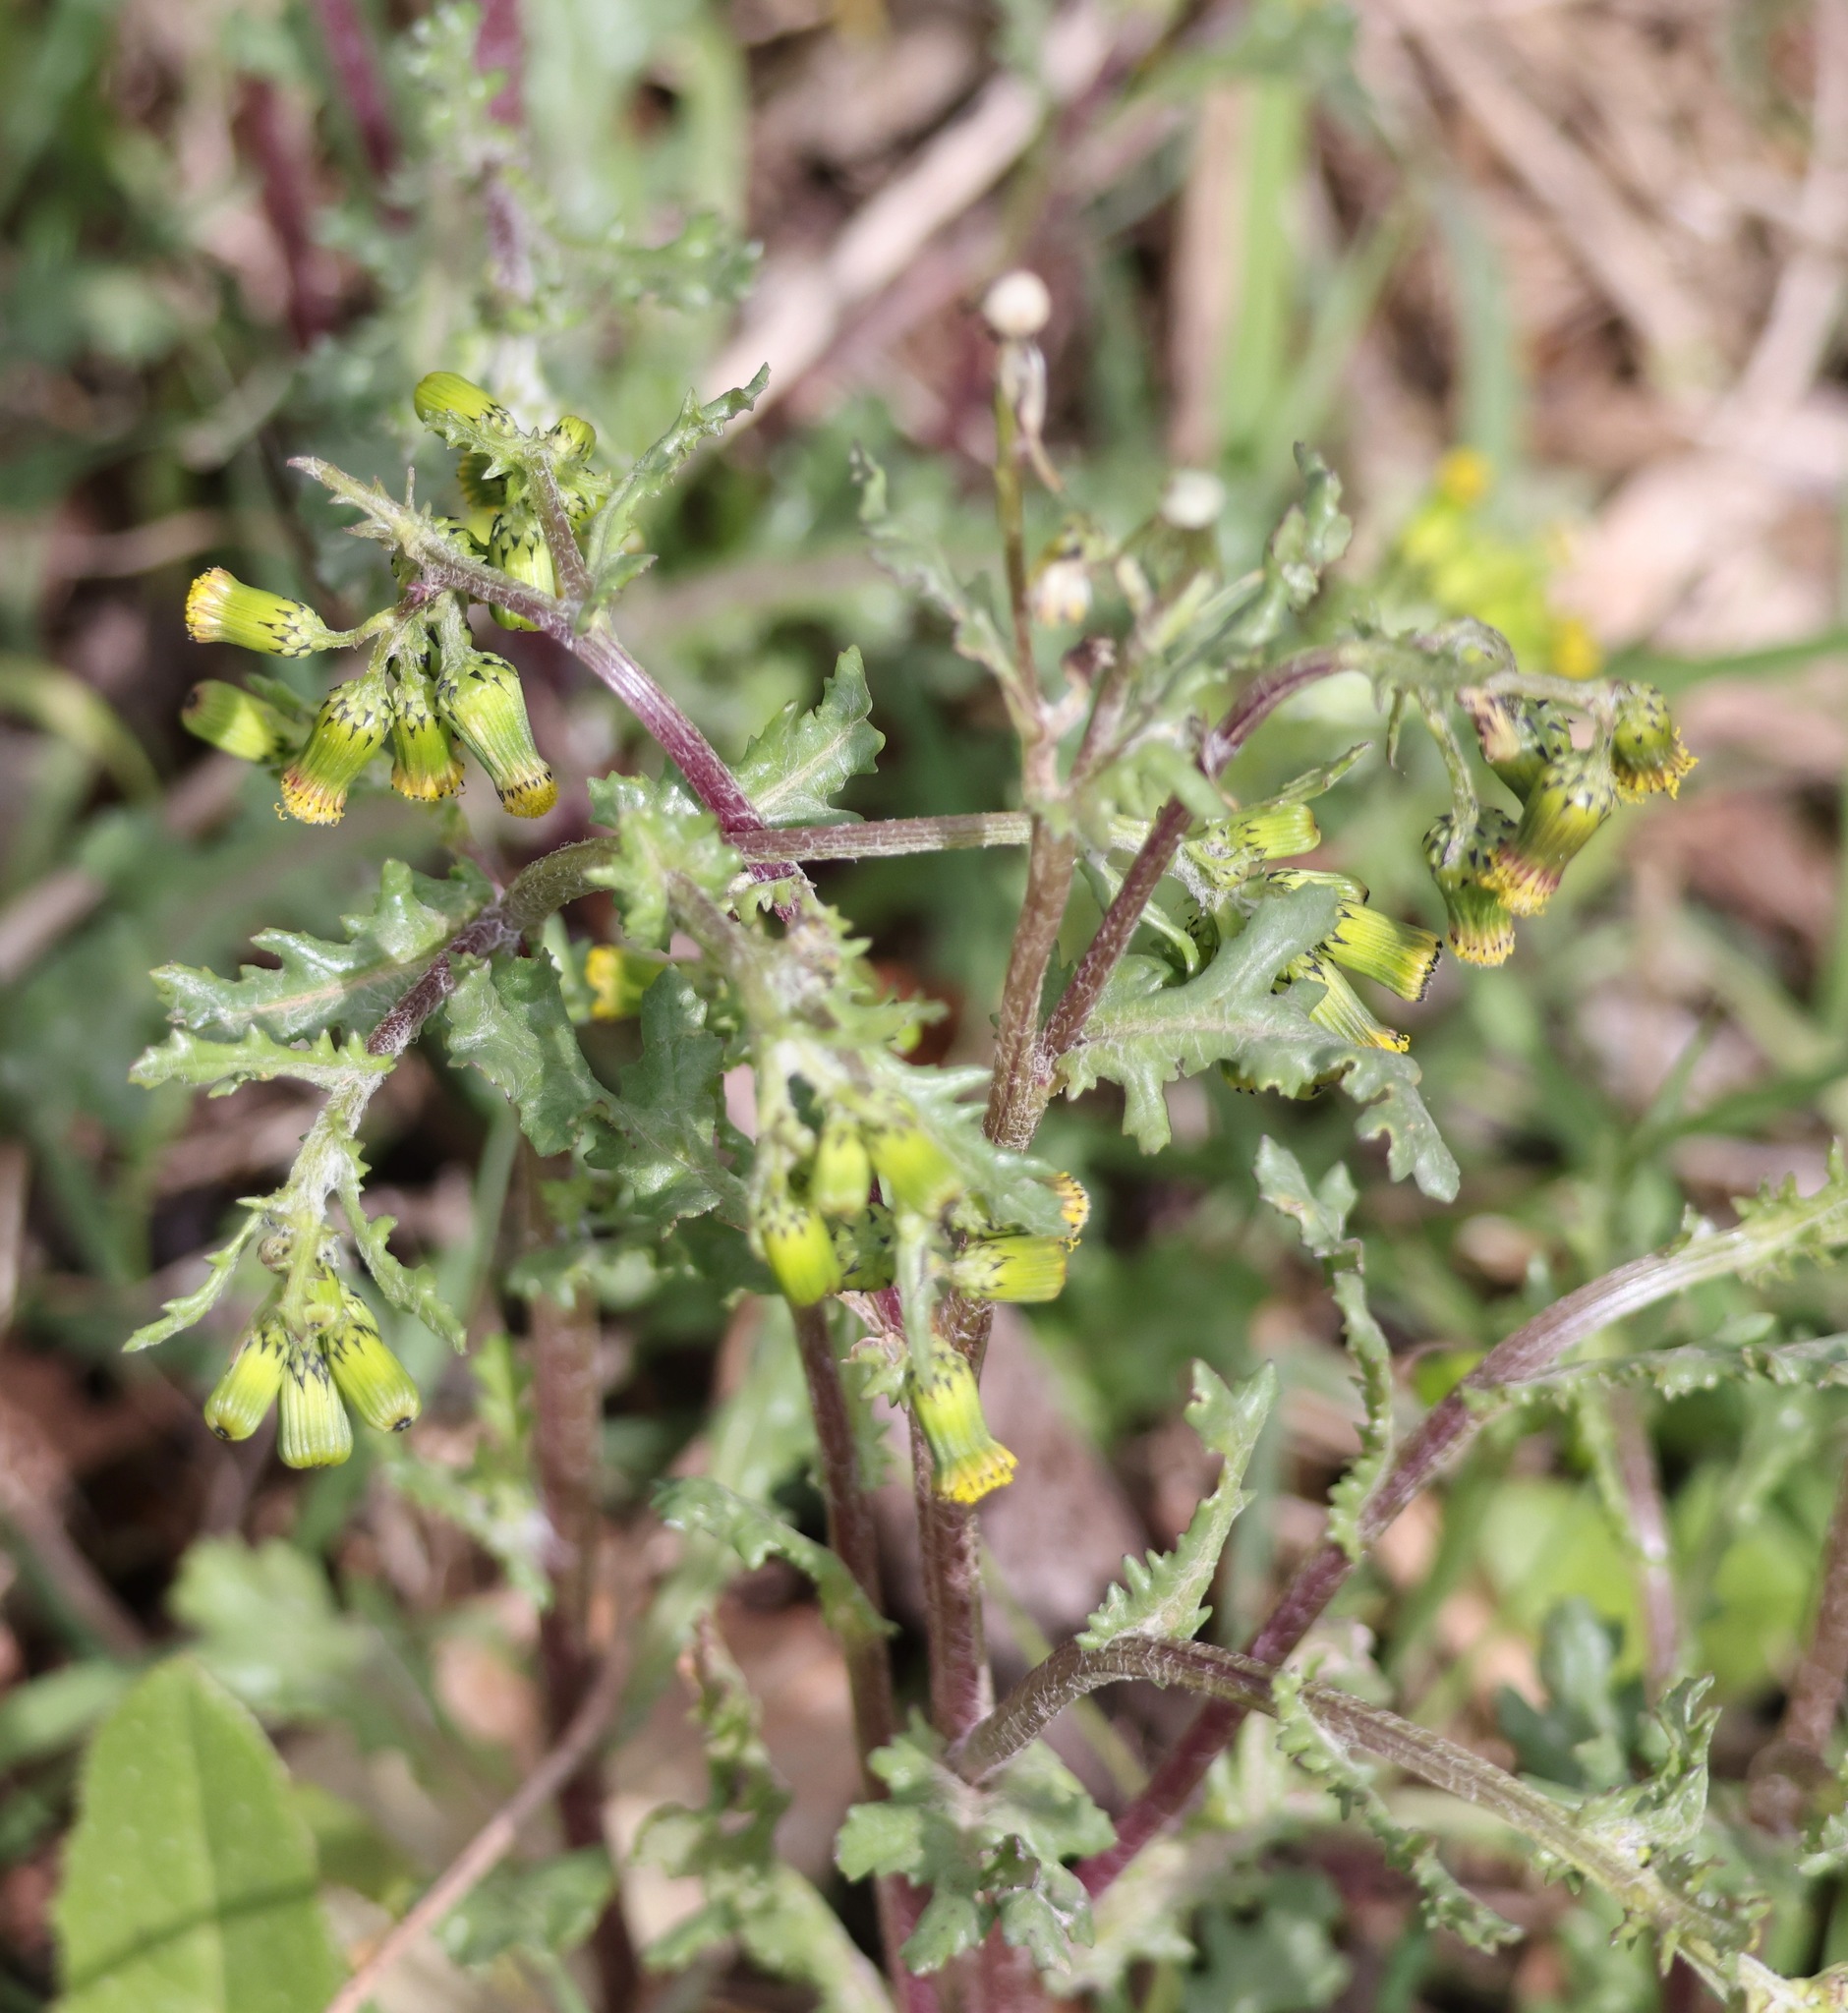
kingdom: Plantae
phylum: Tracheophyta
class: Magnoliopsida
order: Asterales
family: Asteraceae
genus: Senecio
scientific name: Senecio vulgaris
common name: Old-man-in-the-spring
